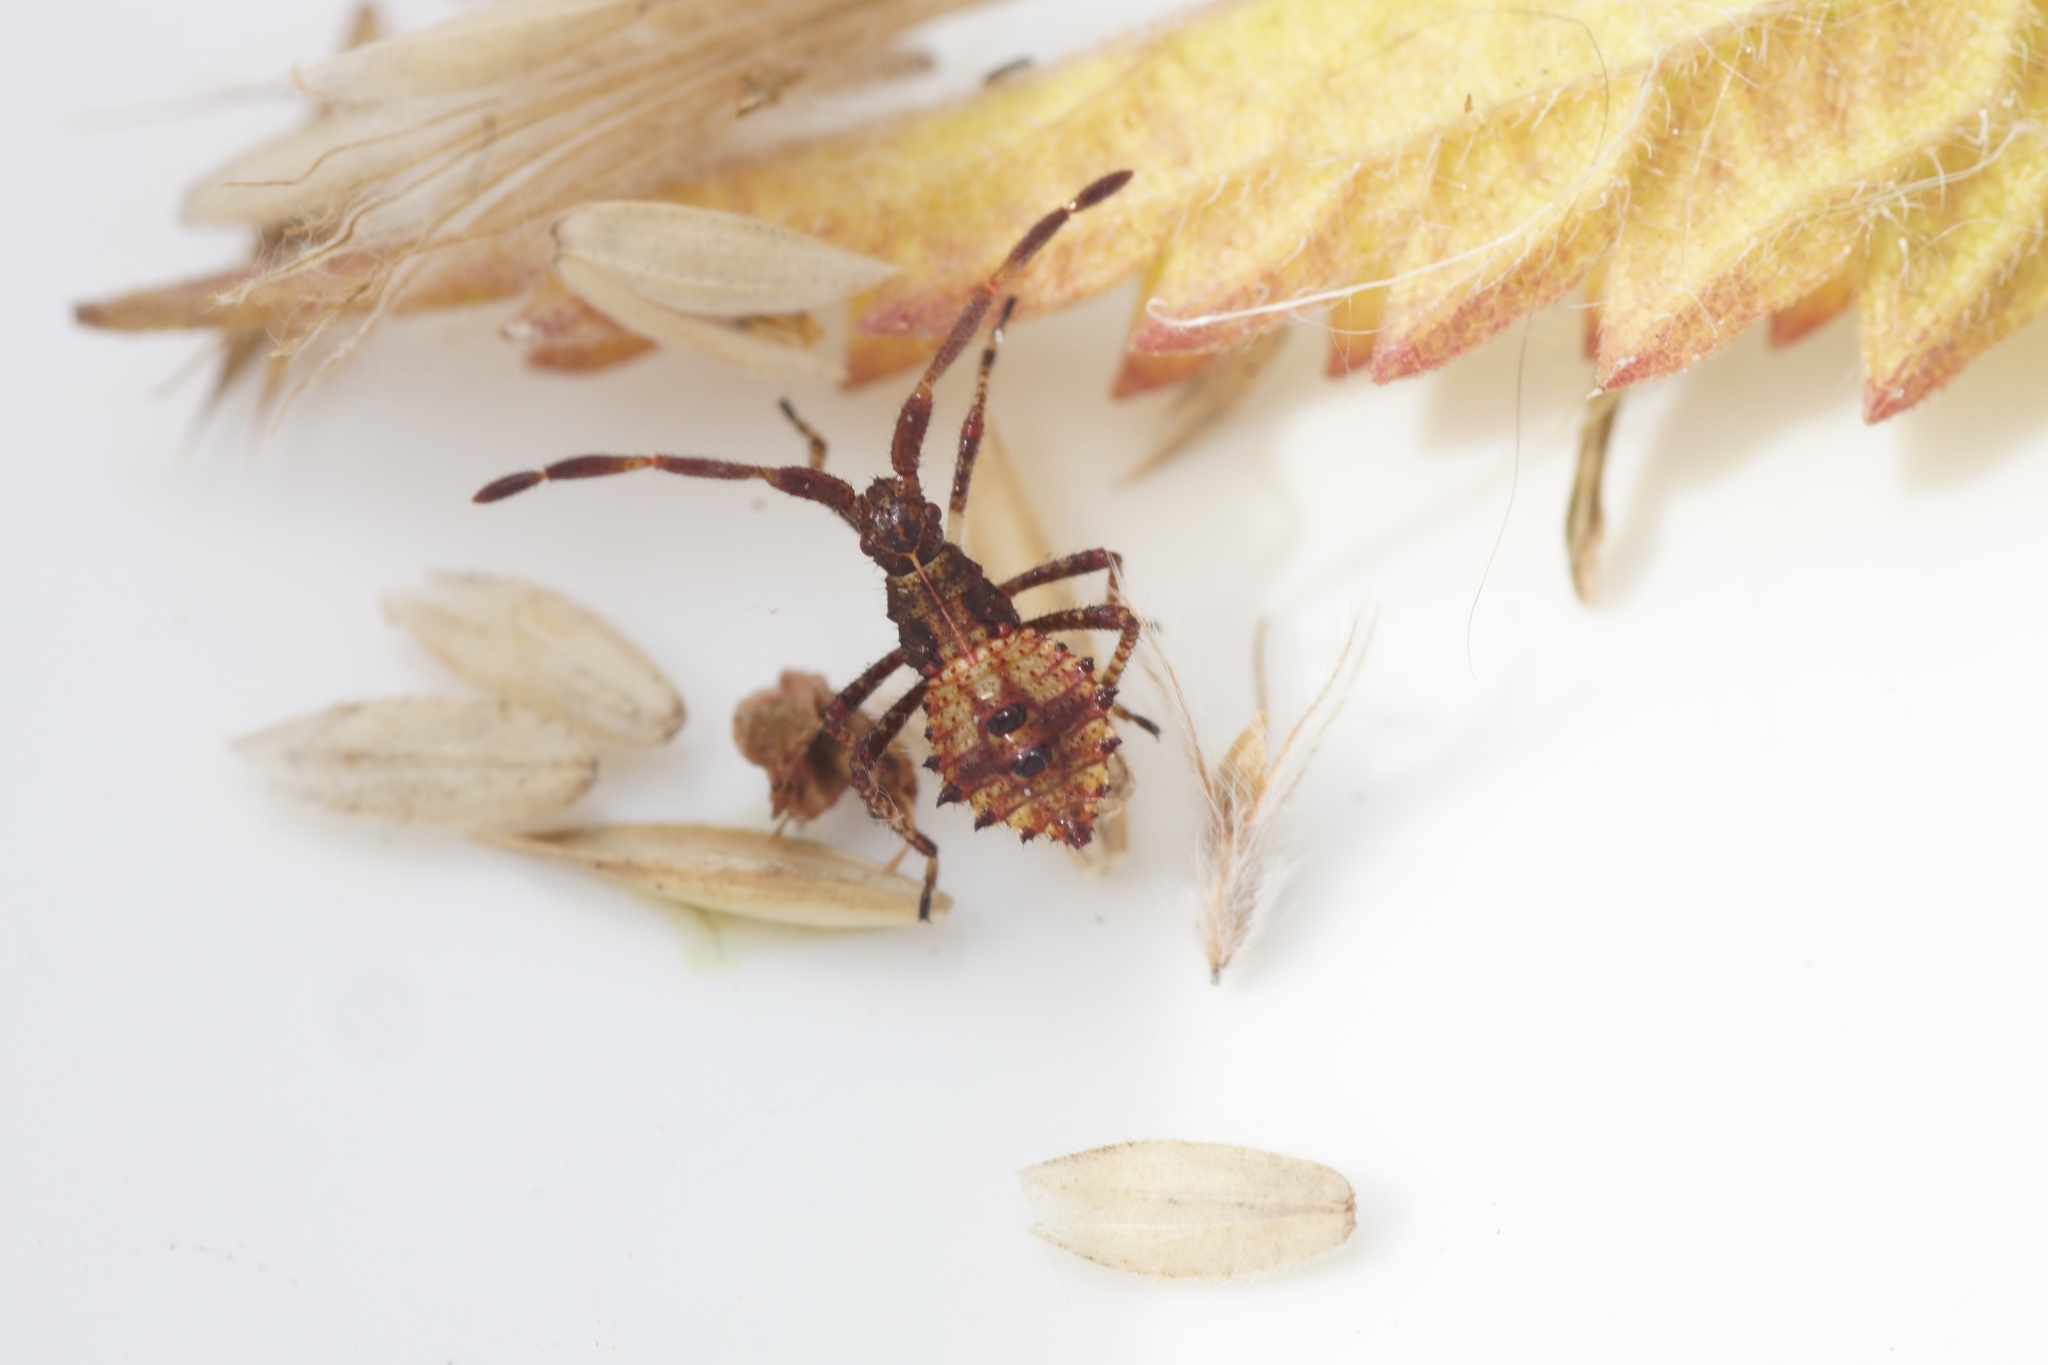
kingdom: Animalia
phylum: Arthropoda
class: Insecta
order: Hemiptera
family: Coreidae
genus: Coreus
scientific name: Coreus marginatus
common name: Dock bug
